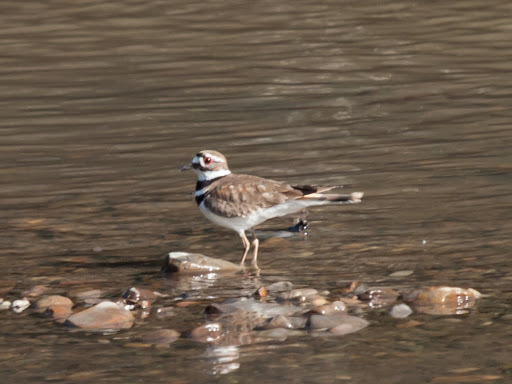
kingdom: Animalia
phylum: Chordata
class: Aves
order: Charadriiformes
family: Charadriidae
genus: Charadrius
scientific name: Charadrius vociferus
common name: Killdeer
